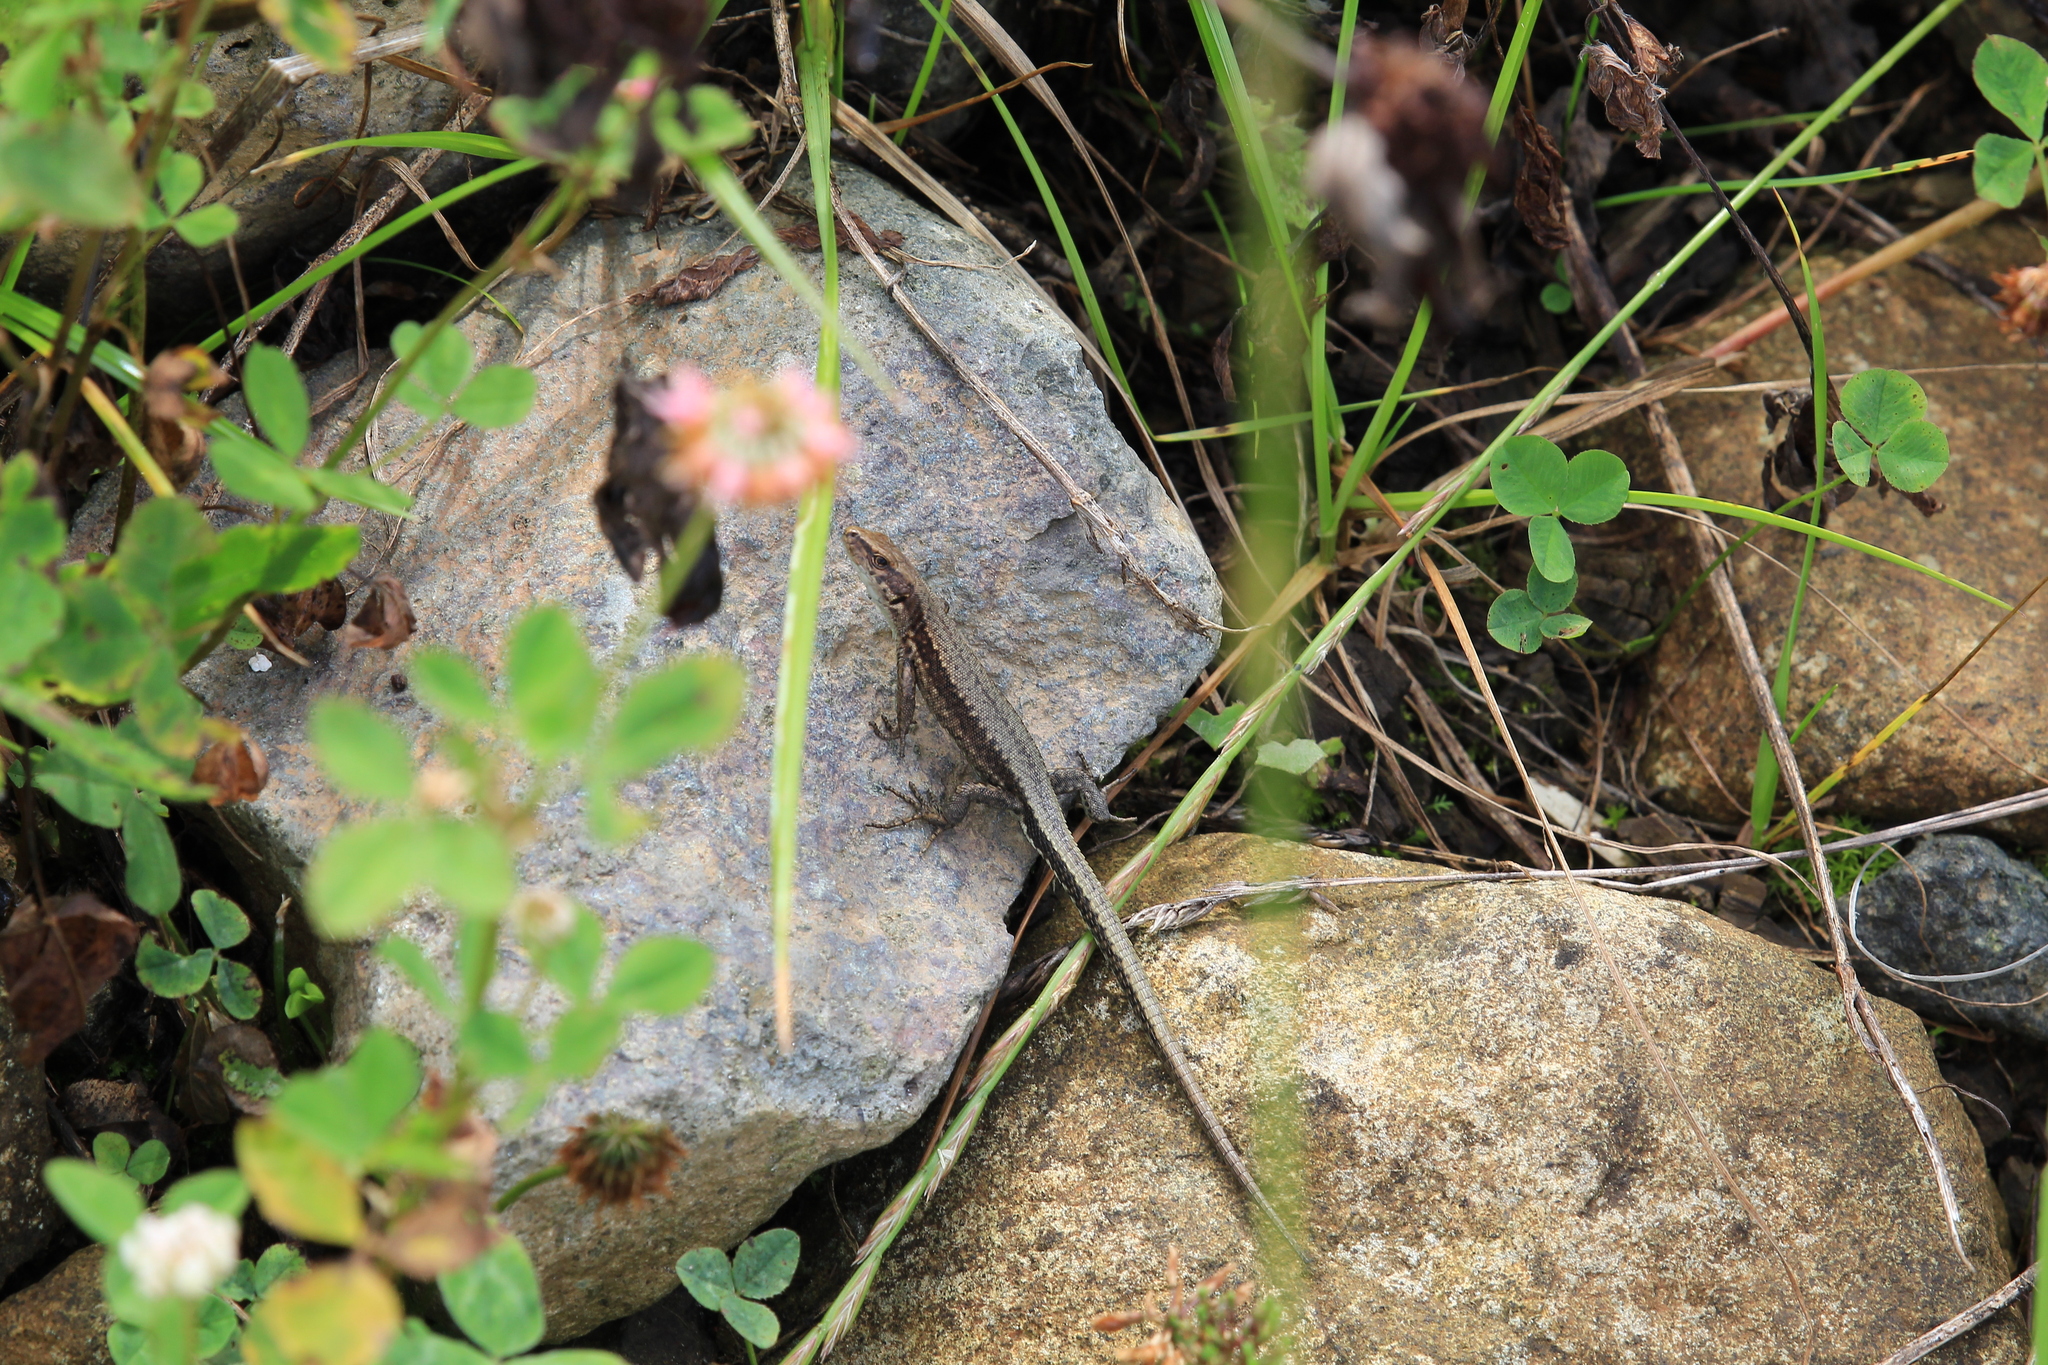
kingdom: Animalia
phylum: Chordata
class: Squamata
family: Lacertidae
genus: Darevskia
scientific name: Darevskia derjugini
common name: Derjugin's lizard
